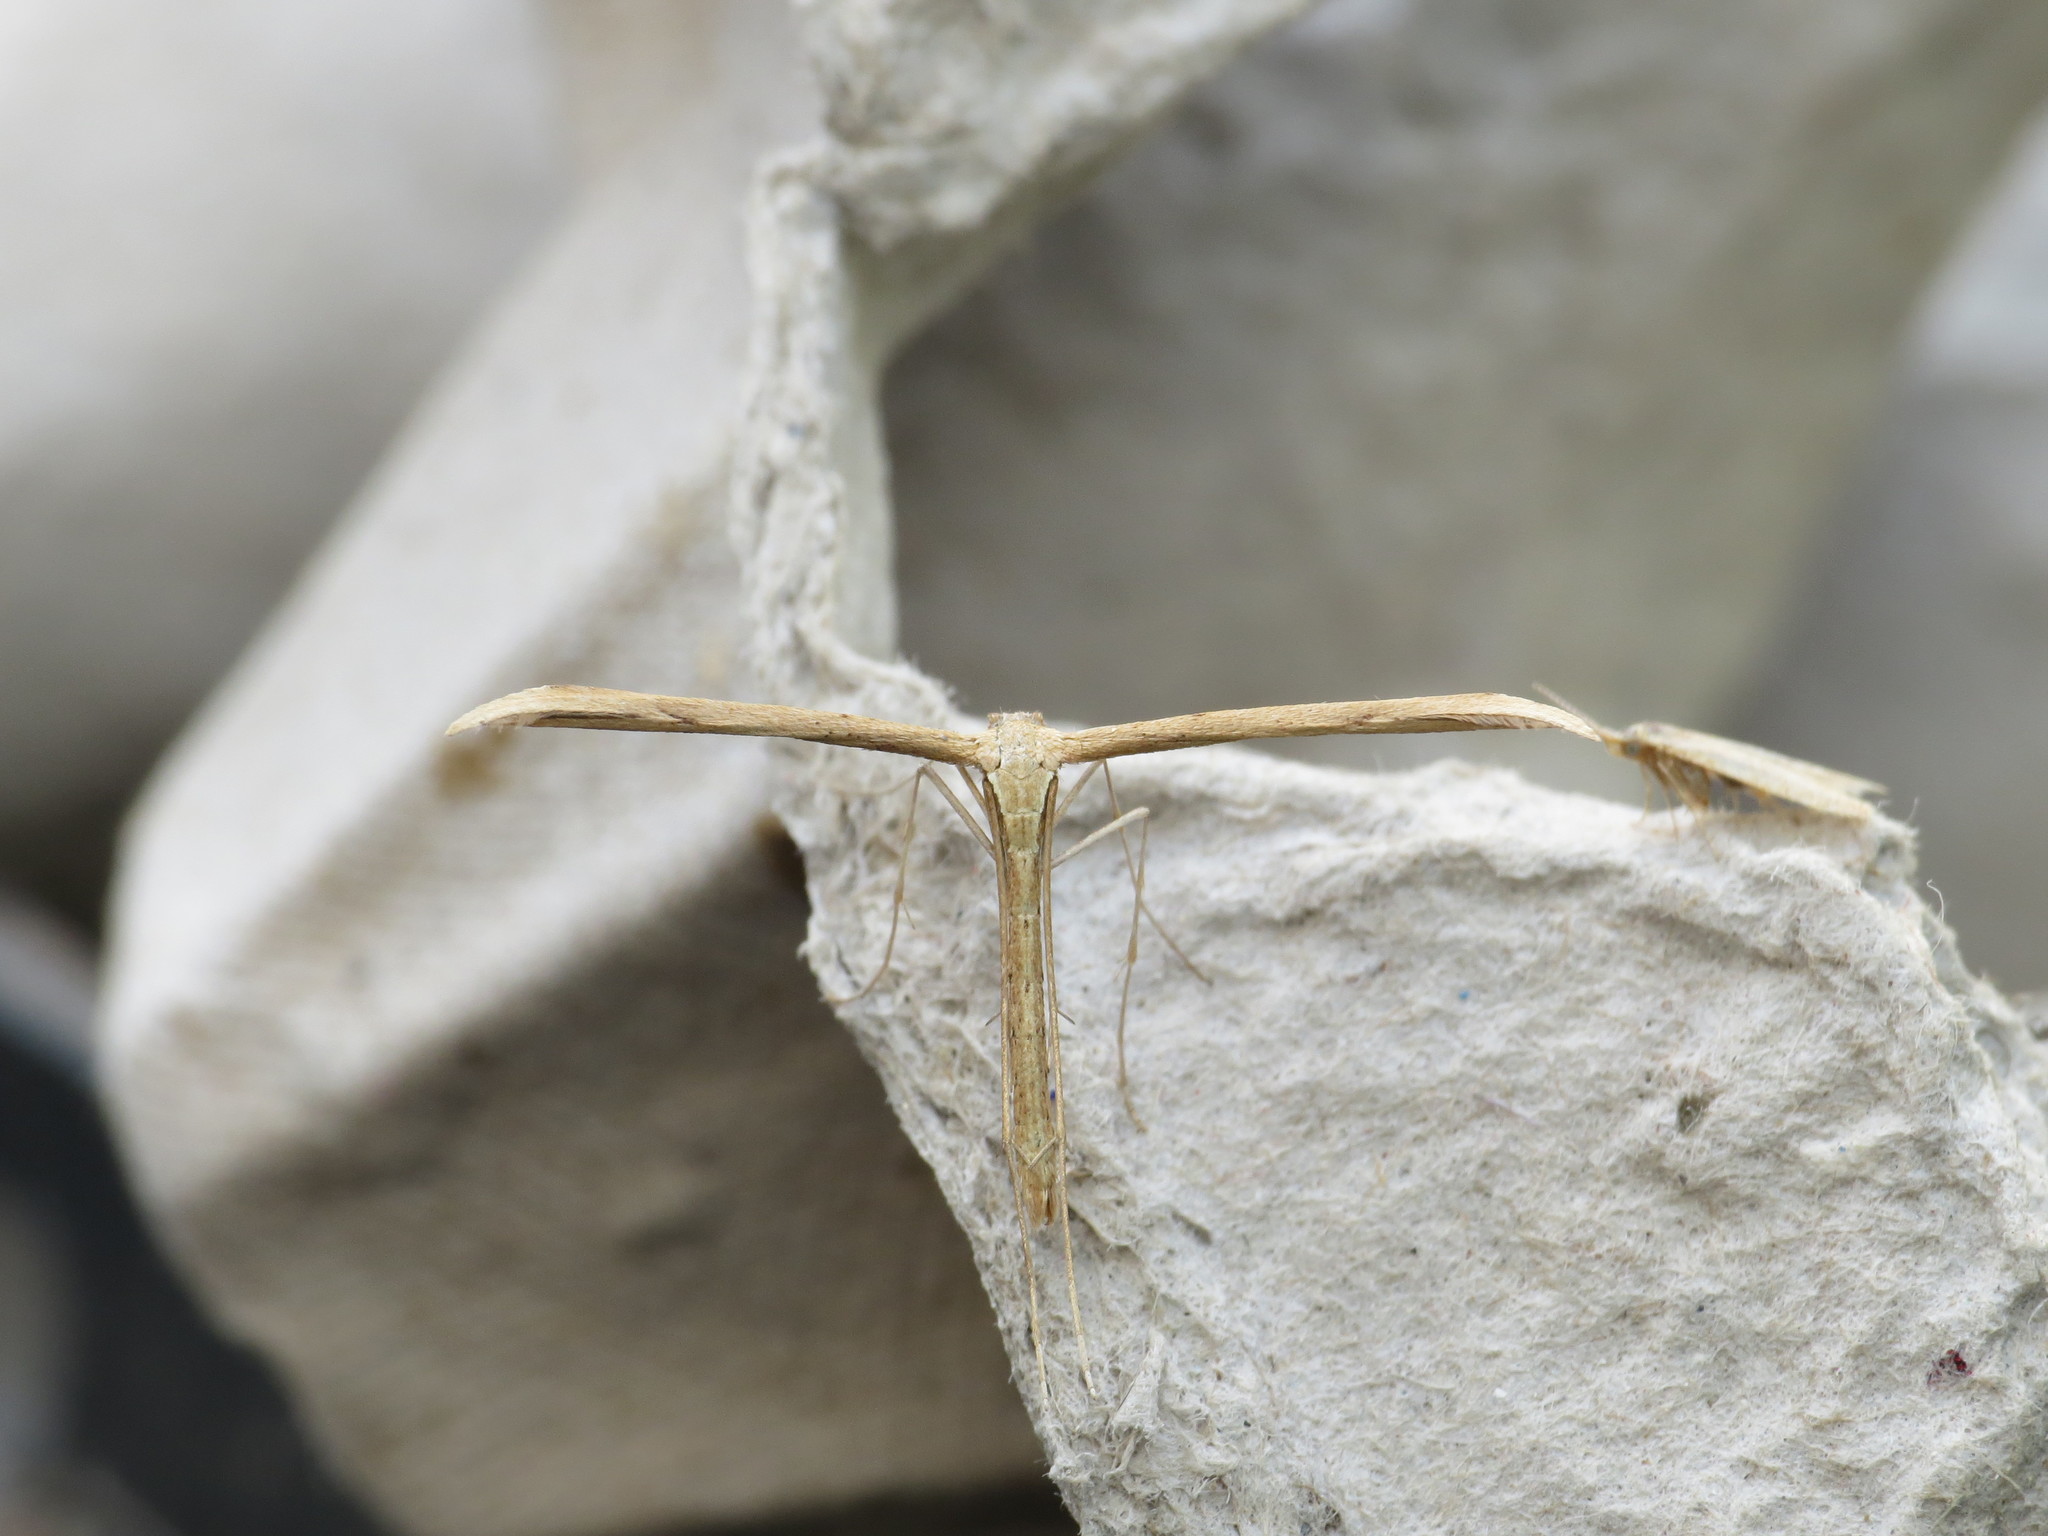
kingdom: Animalia
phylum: Arthropoda
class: Insecta
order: Lepidoptera
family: Pterophoridae
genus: Emmelina
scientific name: Emmelina monodactyla
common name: Common plume
